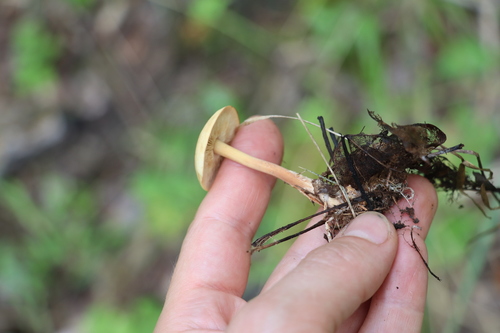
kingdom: Fungi
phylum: Basidiomycota
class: Agaricomycetes
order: Agaricales
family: Omphalotaceae
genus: Gymnopus
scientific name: Gymnopus aquosus
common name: Watery toughshank
